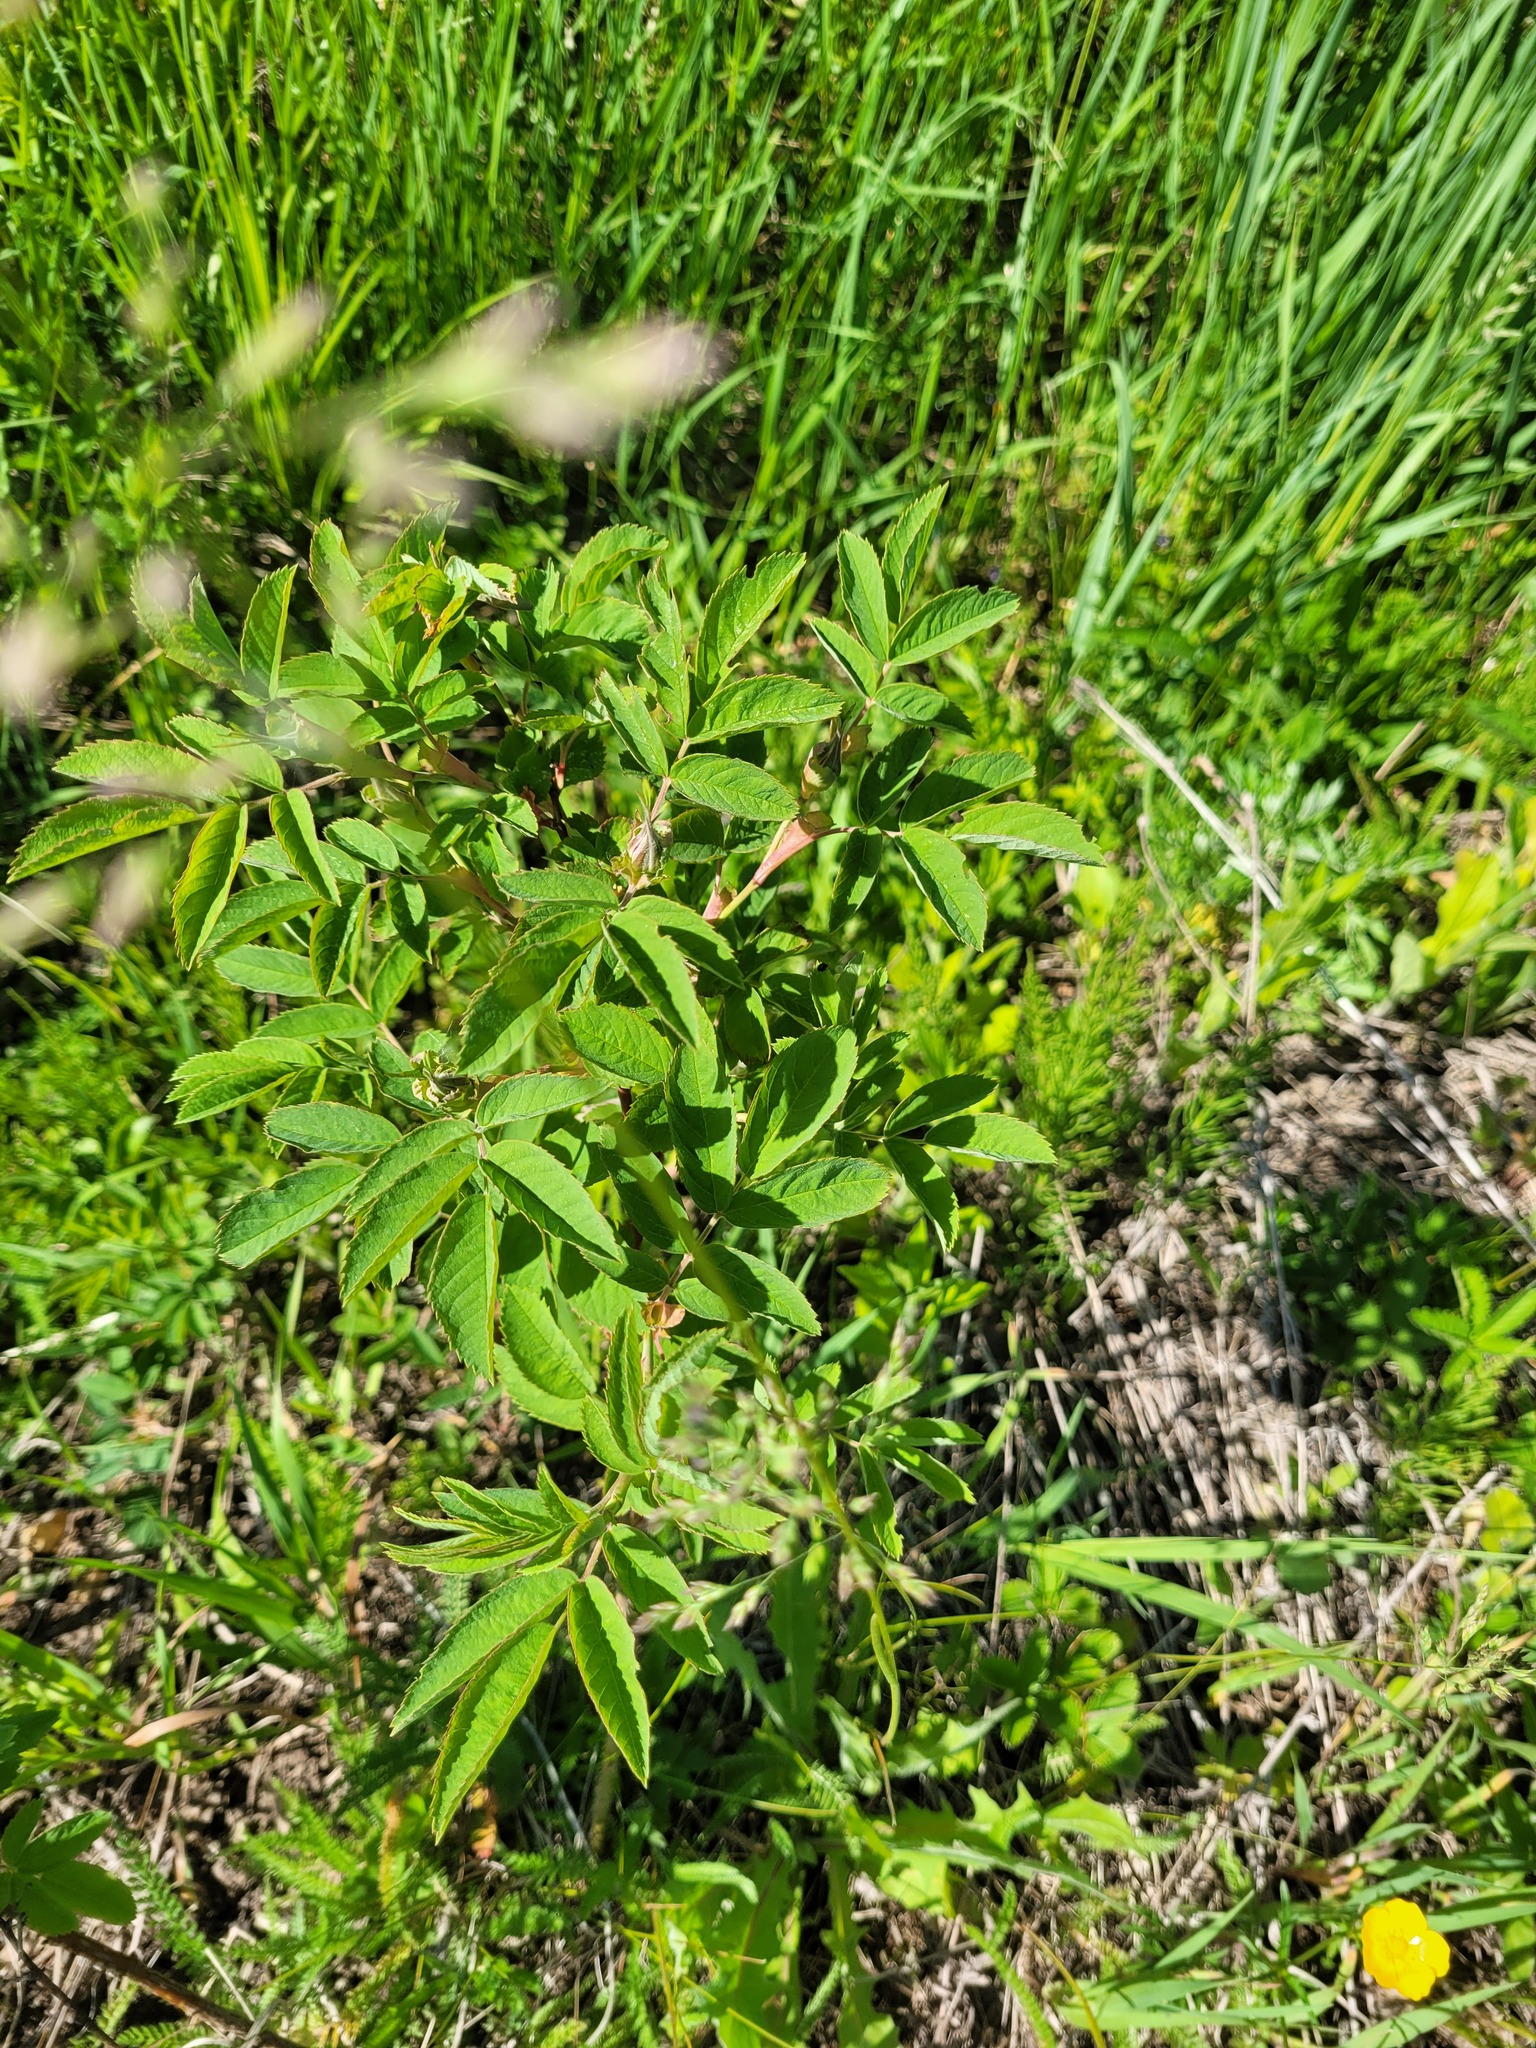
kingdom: Plantae
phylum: Tracheophyta
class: Magnoliopsida
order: Rosales
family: Rosaceae
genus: Rosa
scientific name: Rosa majalis
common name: Cinnamon rose
